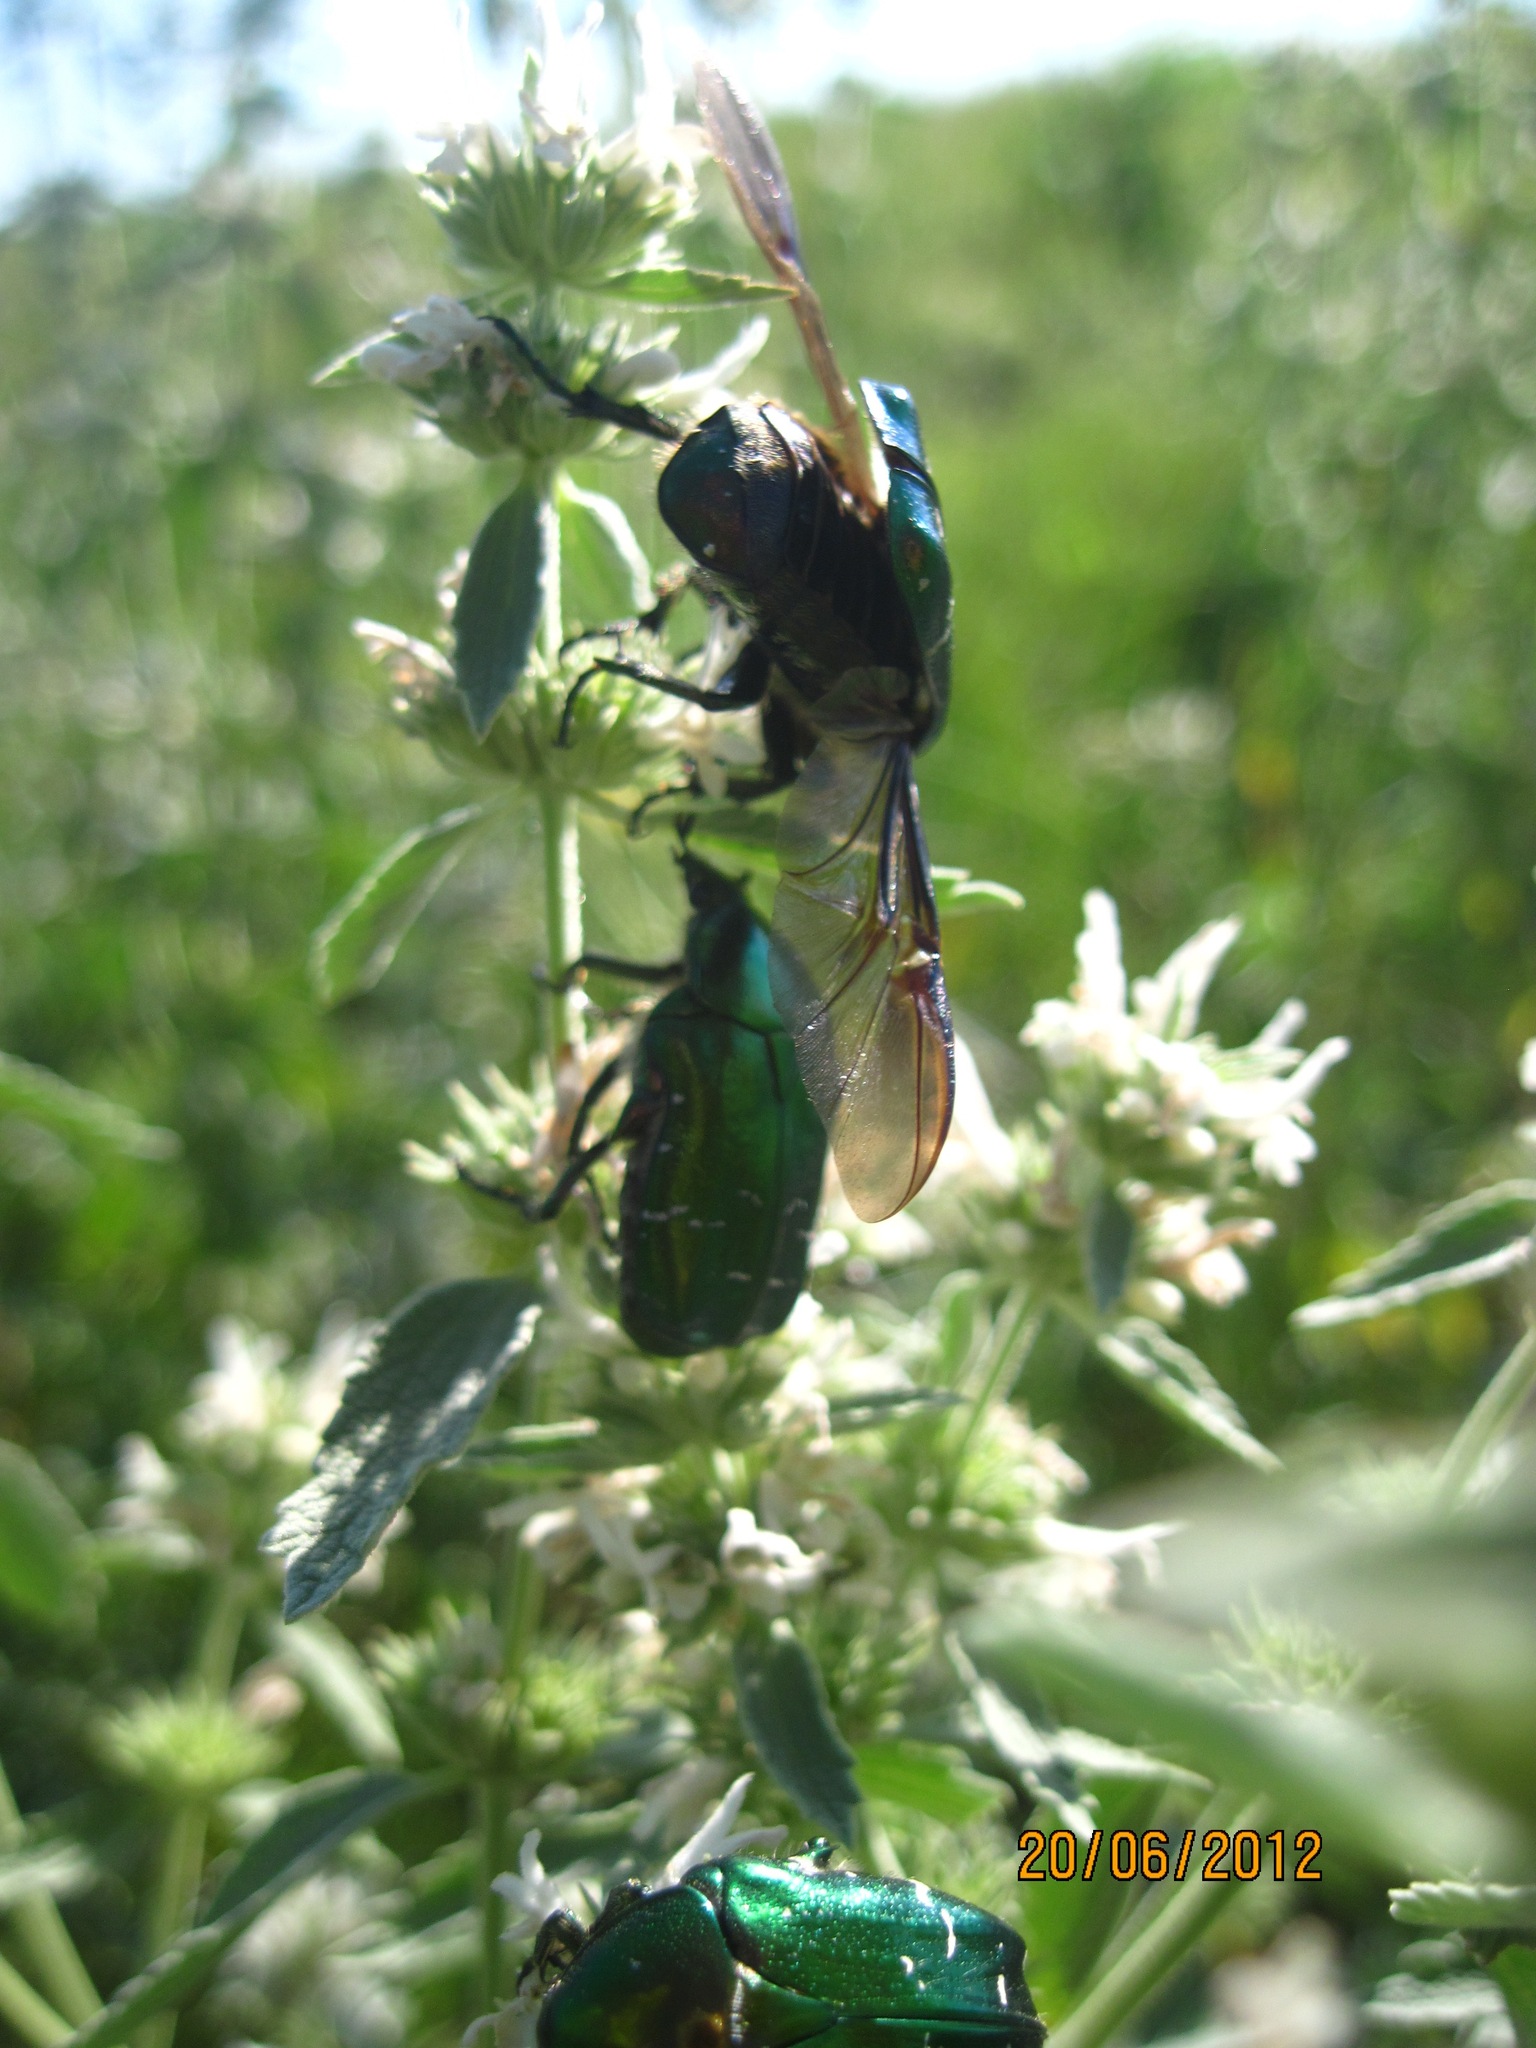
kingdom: Animalia
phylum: Arthropoda
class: Insecta
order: Coleoptera
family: Scarabaeidae
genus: Cetonia
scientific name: Cetonia aurata
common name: Rose chafer
